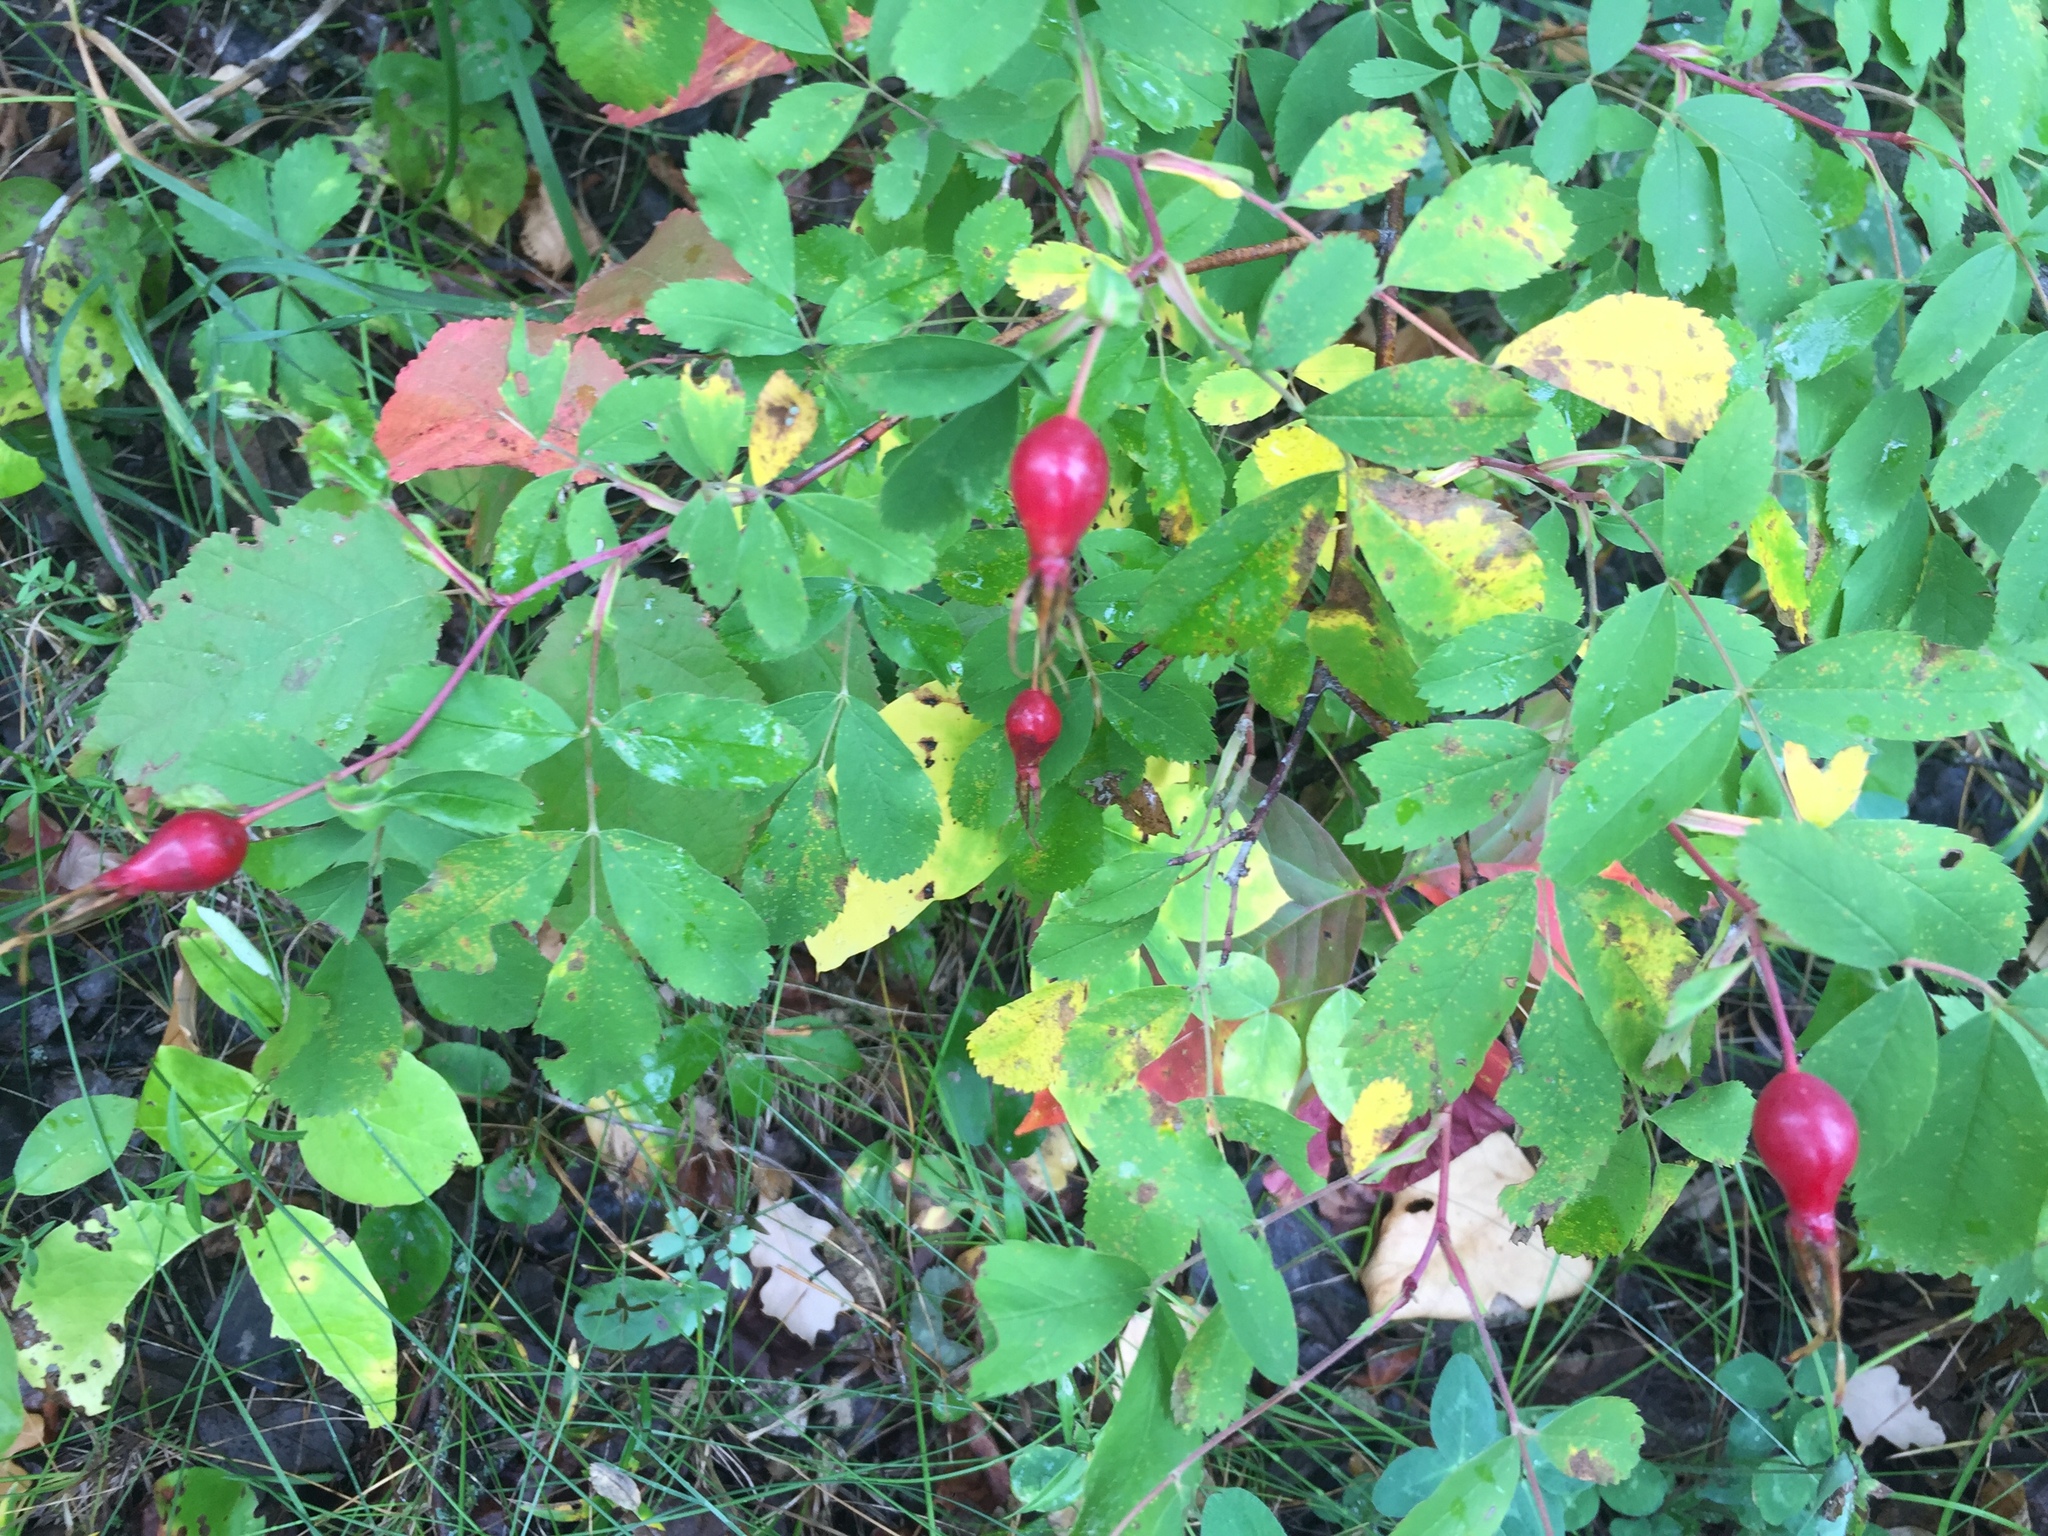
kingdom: Plantae
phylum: Tracheophyta
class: Magnoliopsida
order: Rosales
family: Rosaceae
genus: Rosa
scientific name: Rosa acicularis
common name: Prickly rose
